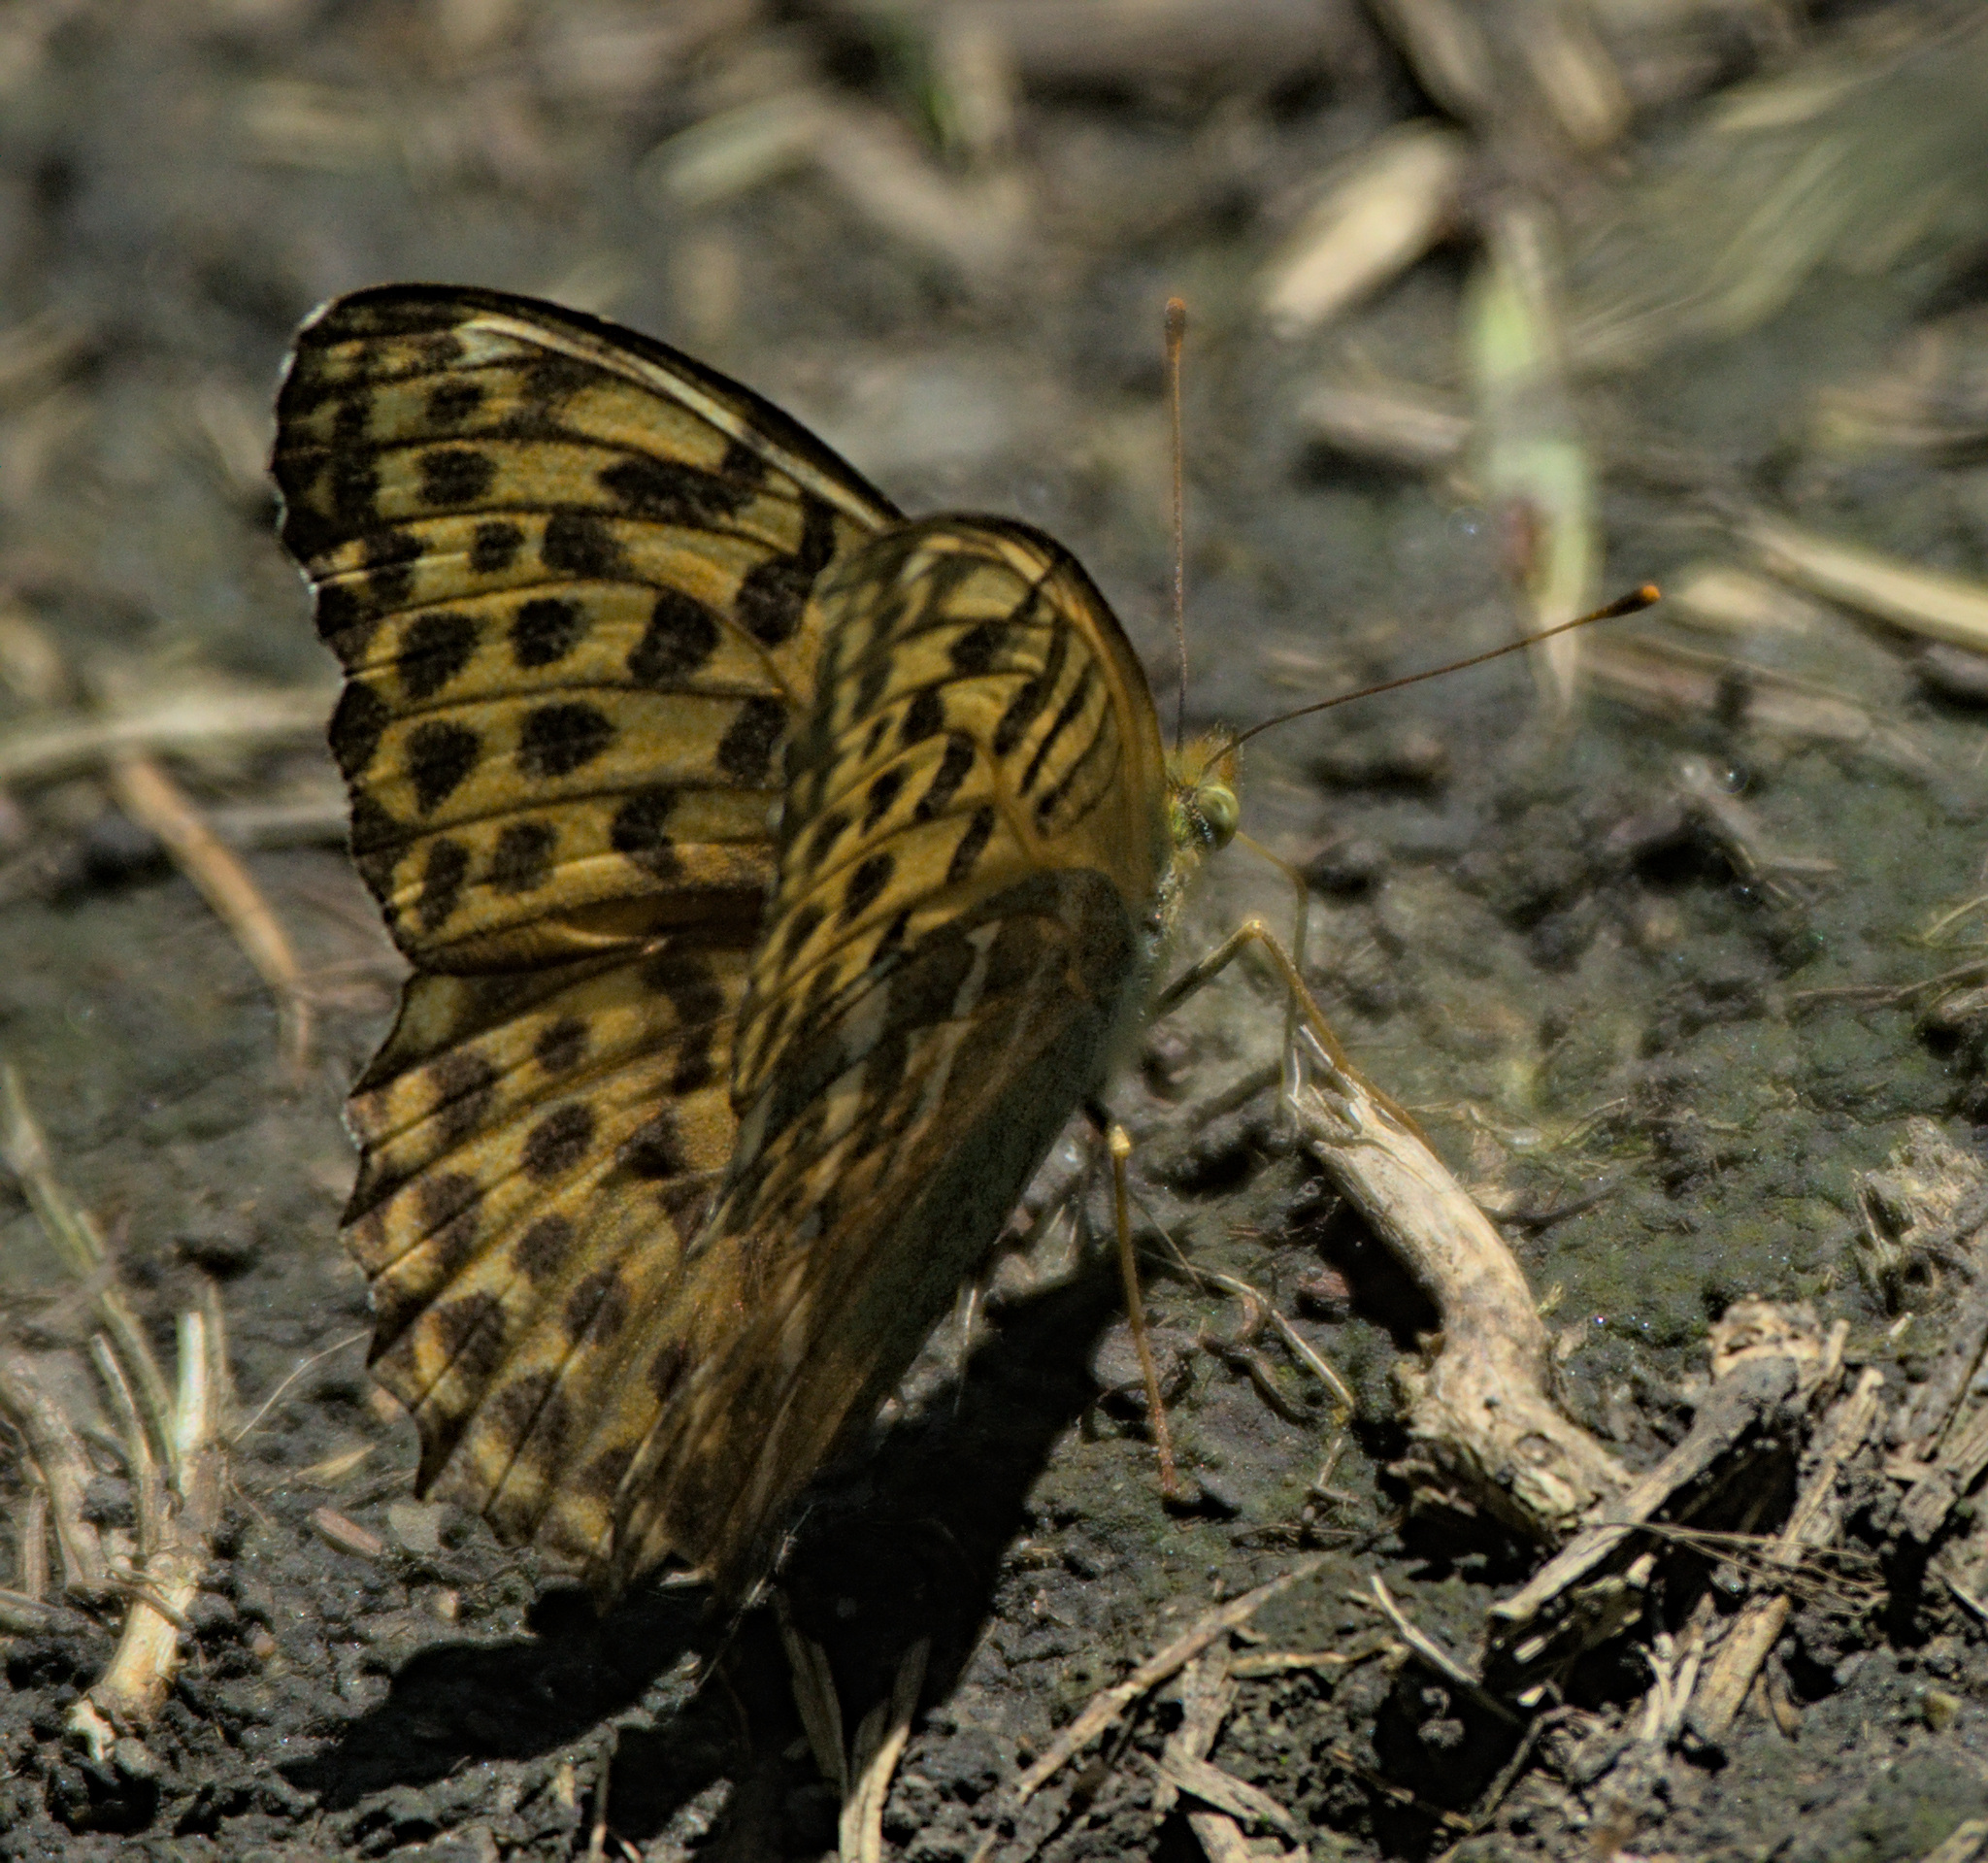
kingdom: Animalia
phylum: Arthropoda
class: Insecta
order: Lepidoptera
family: Nymphalidae
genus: Argynnis
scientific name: Argynnis paphia
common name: Silver-washed fritillary
